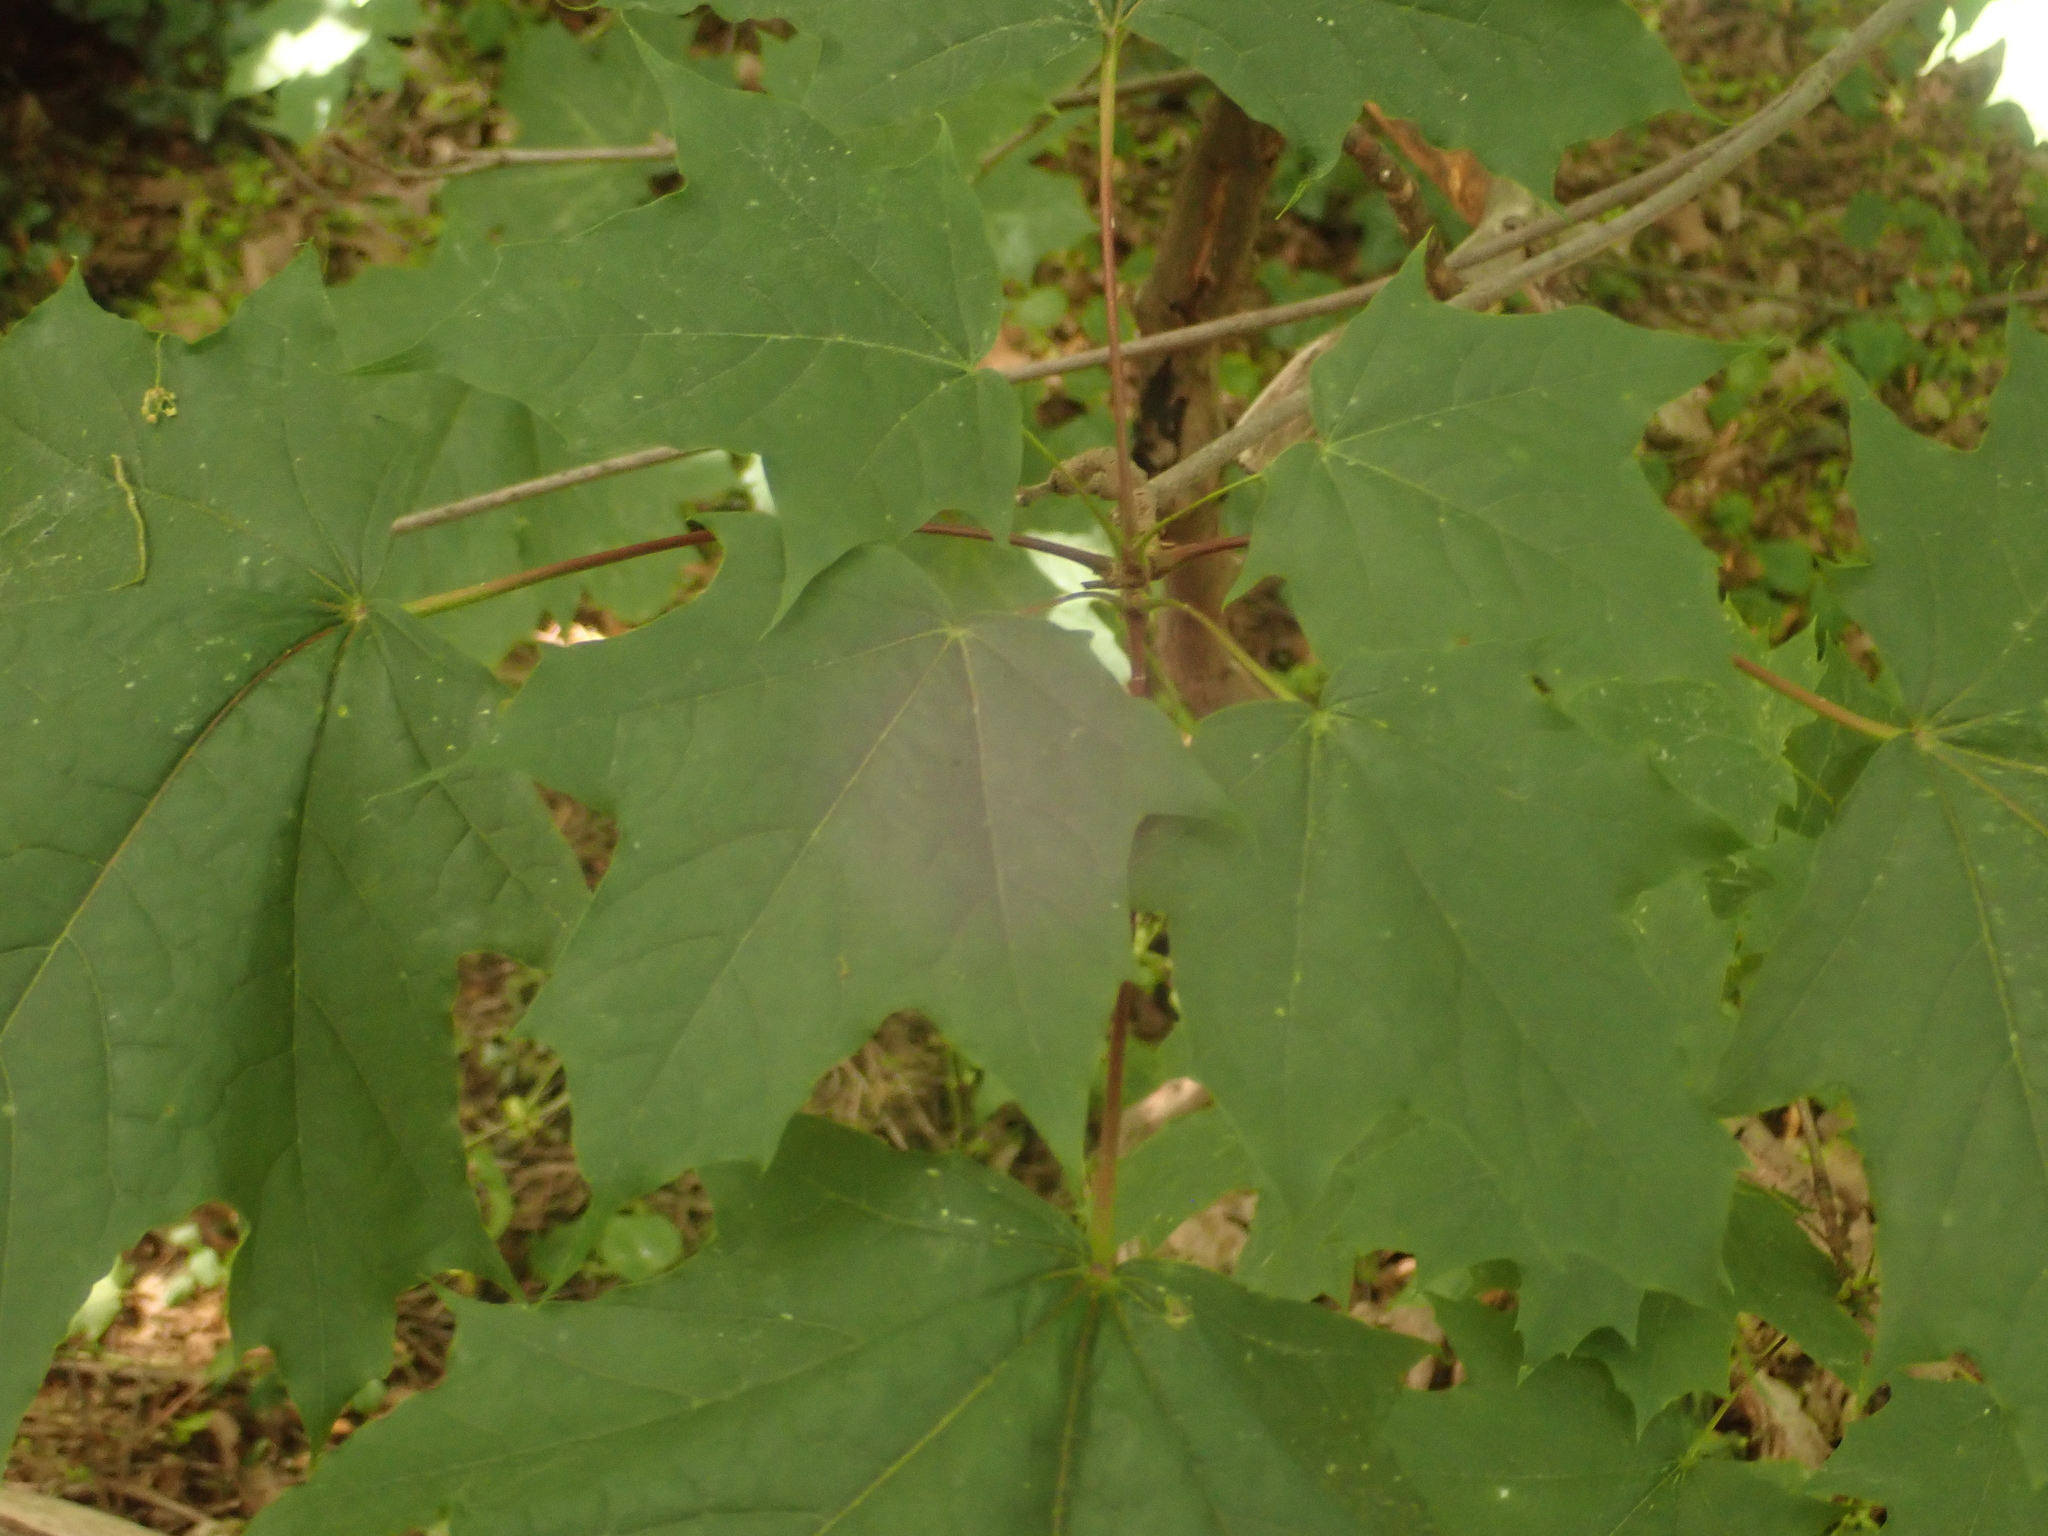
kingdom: Plantae
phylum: Tracheophyta
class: Magnoliopsida
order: Sapindales
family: Sapindaceae
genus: Acer
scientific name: Acer platanoides
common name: Norway maple
